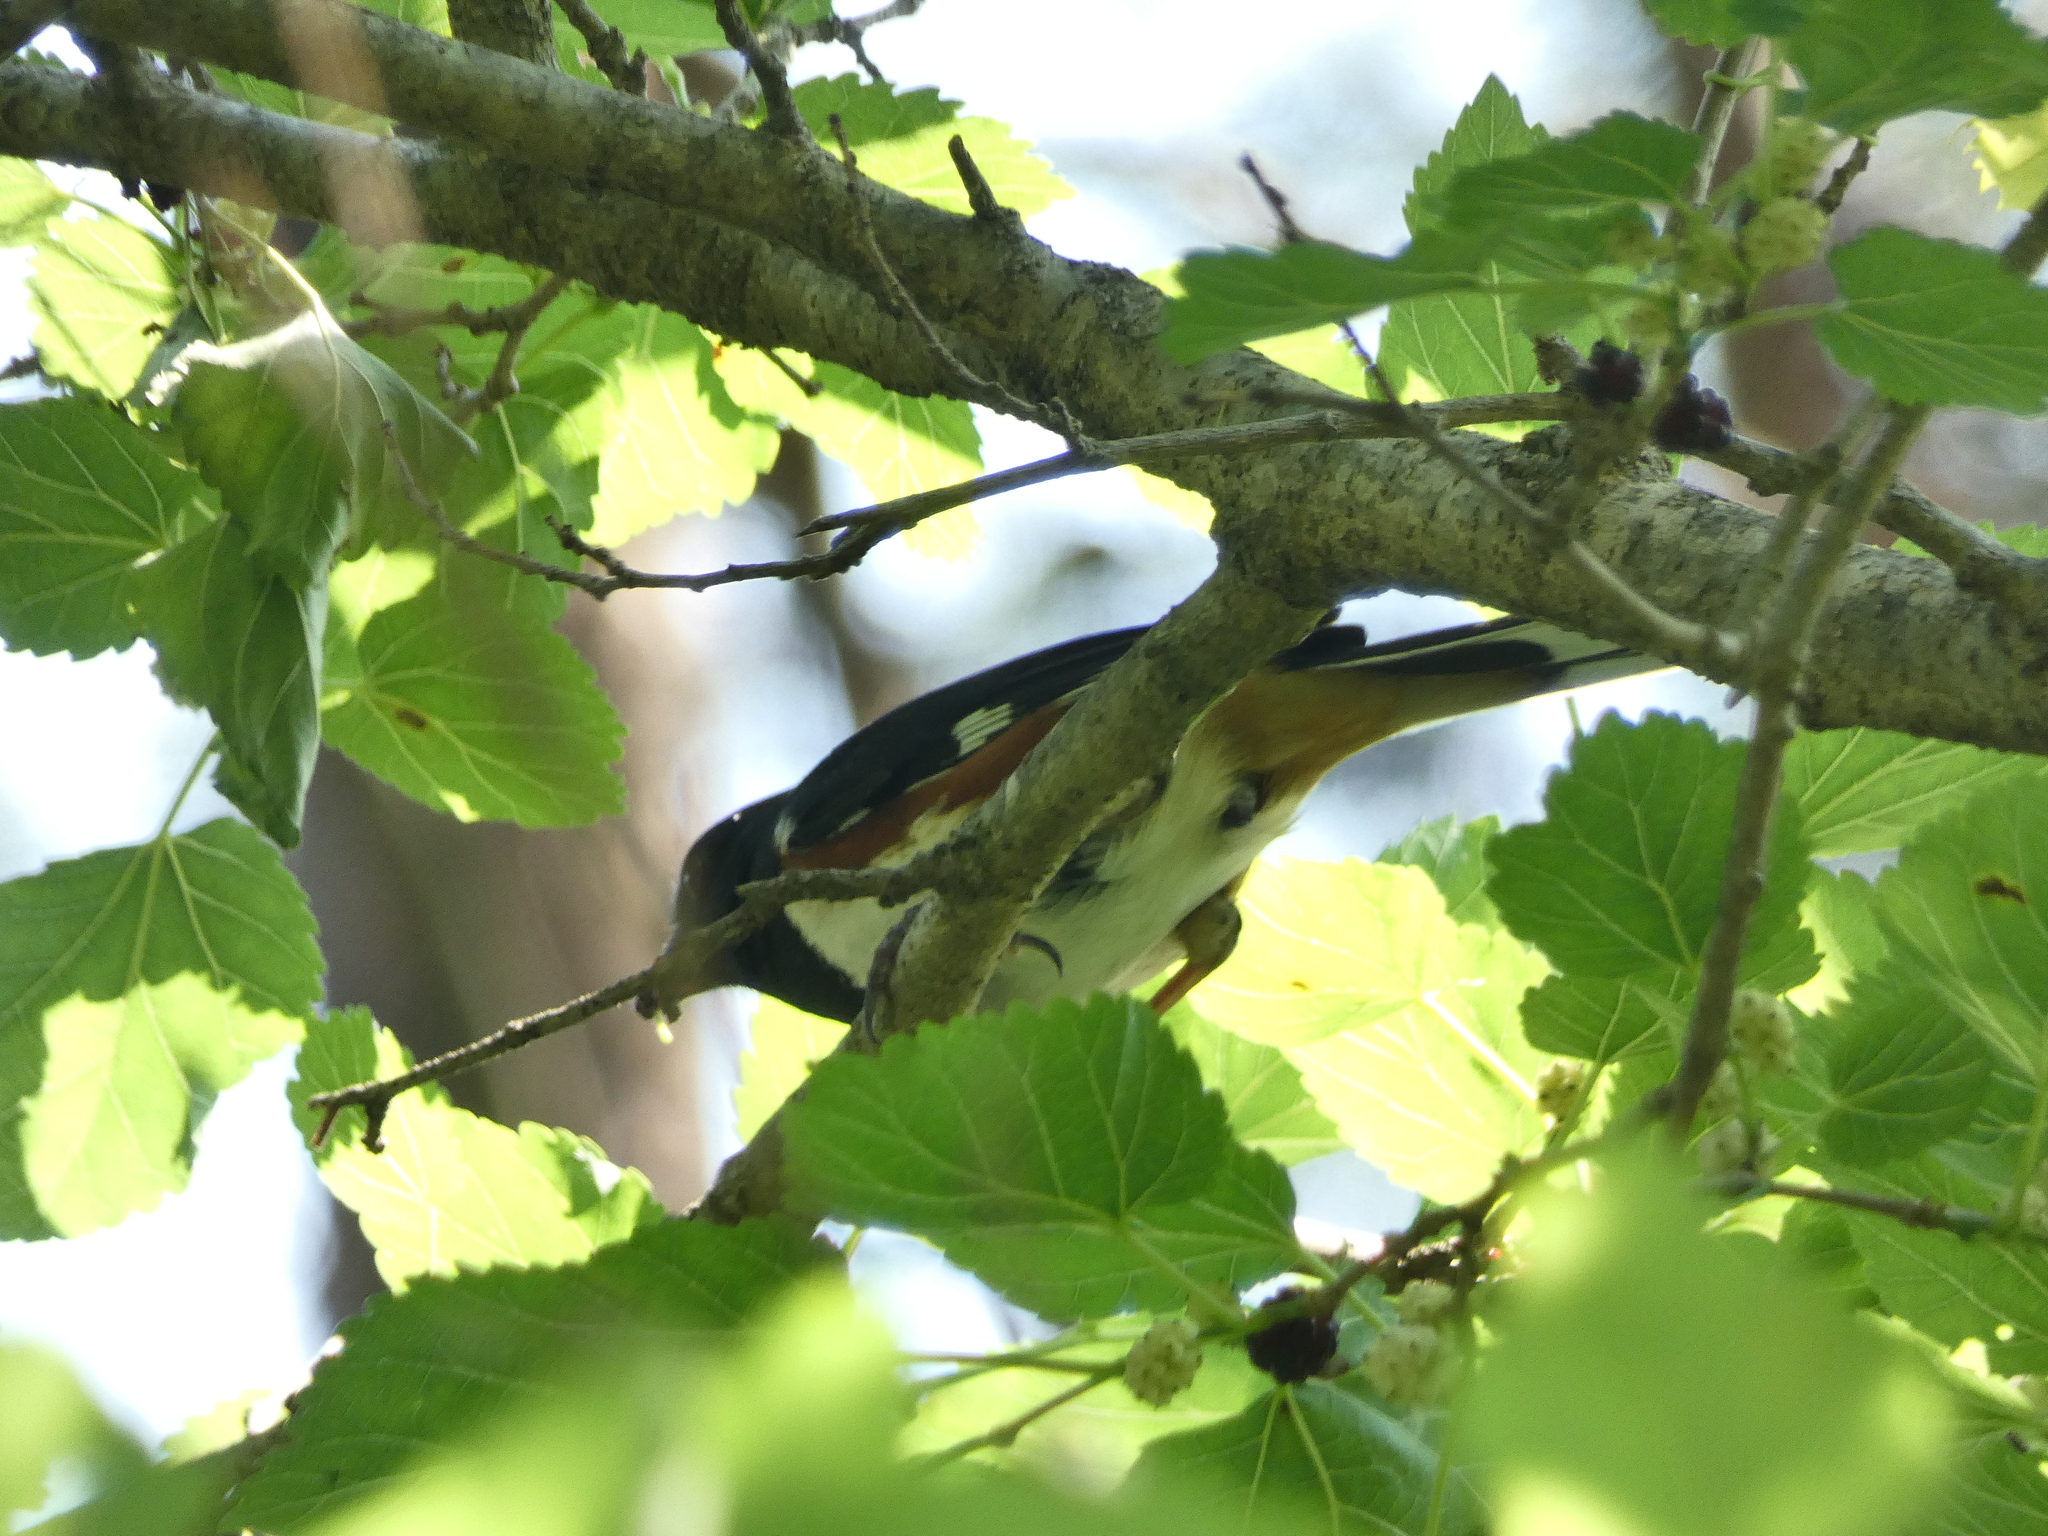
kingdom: Animalia
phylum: Chordata
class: Aves
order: Passeriformes
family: Passerellidae
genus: Pipilo
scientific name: Pipilo erythrophthalmus
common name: Eastern towhee
